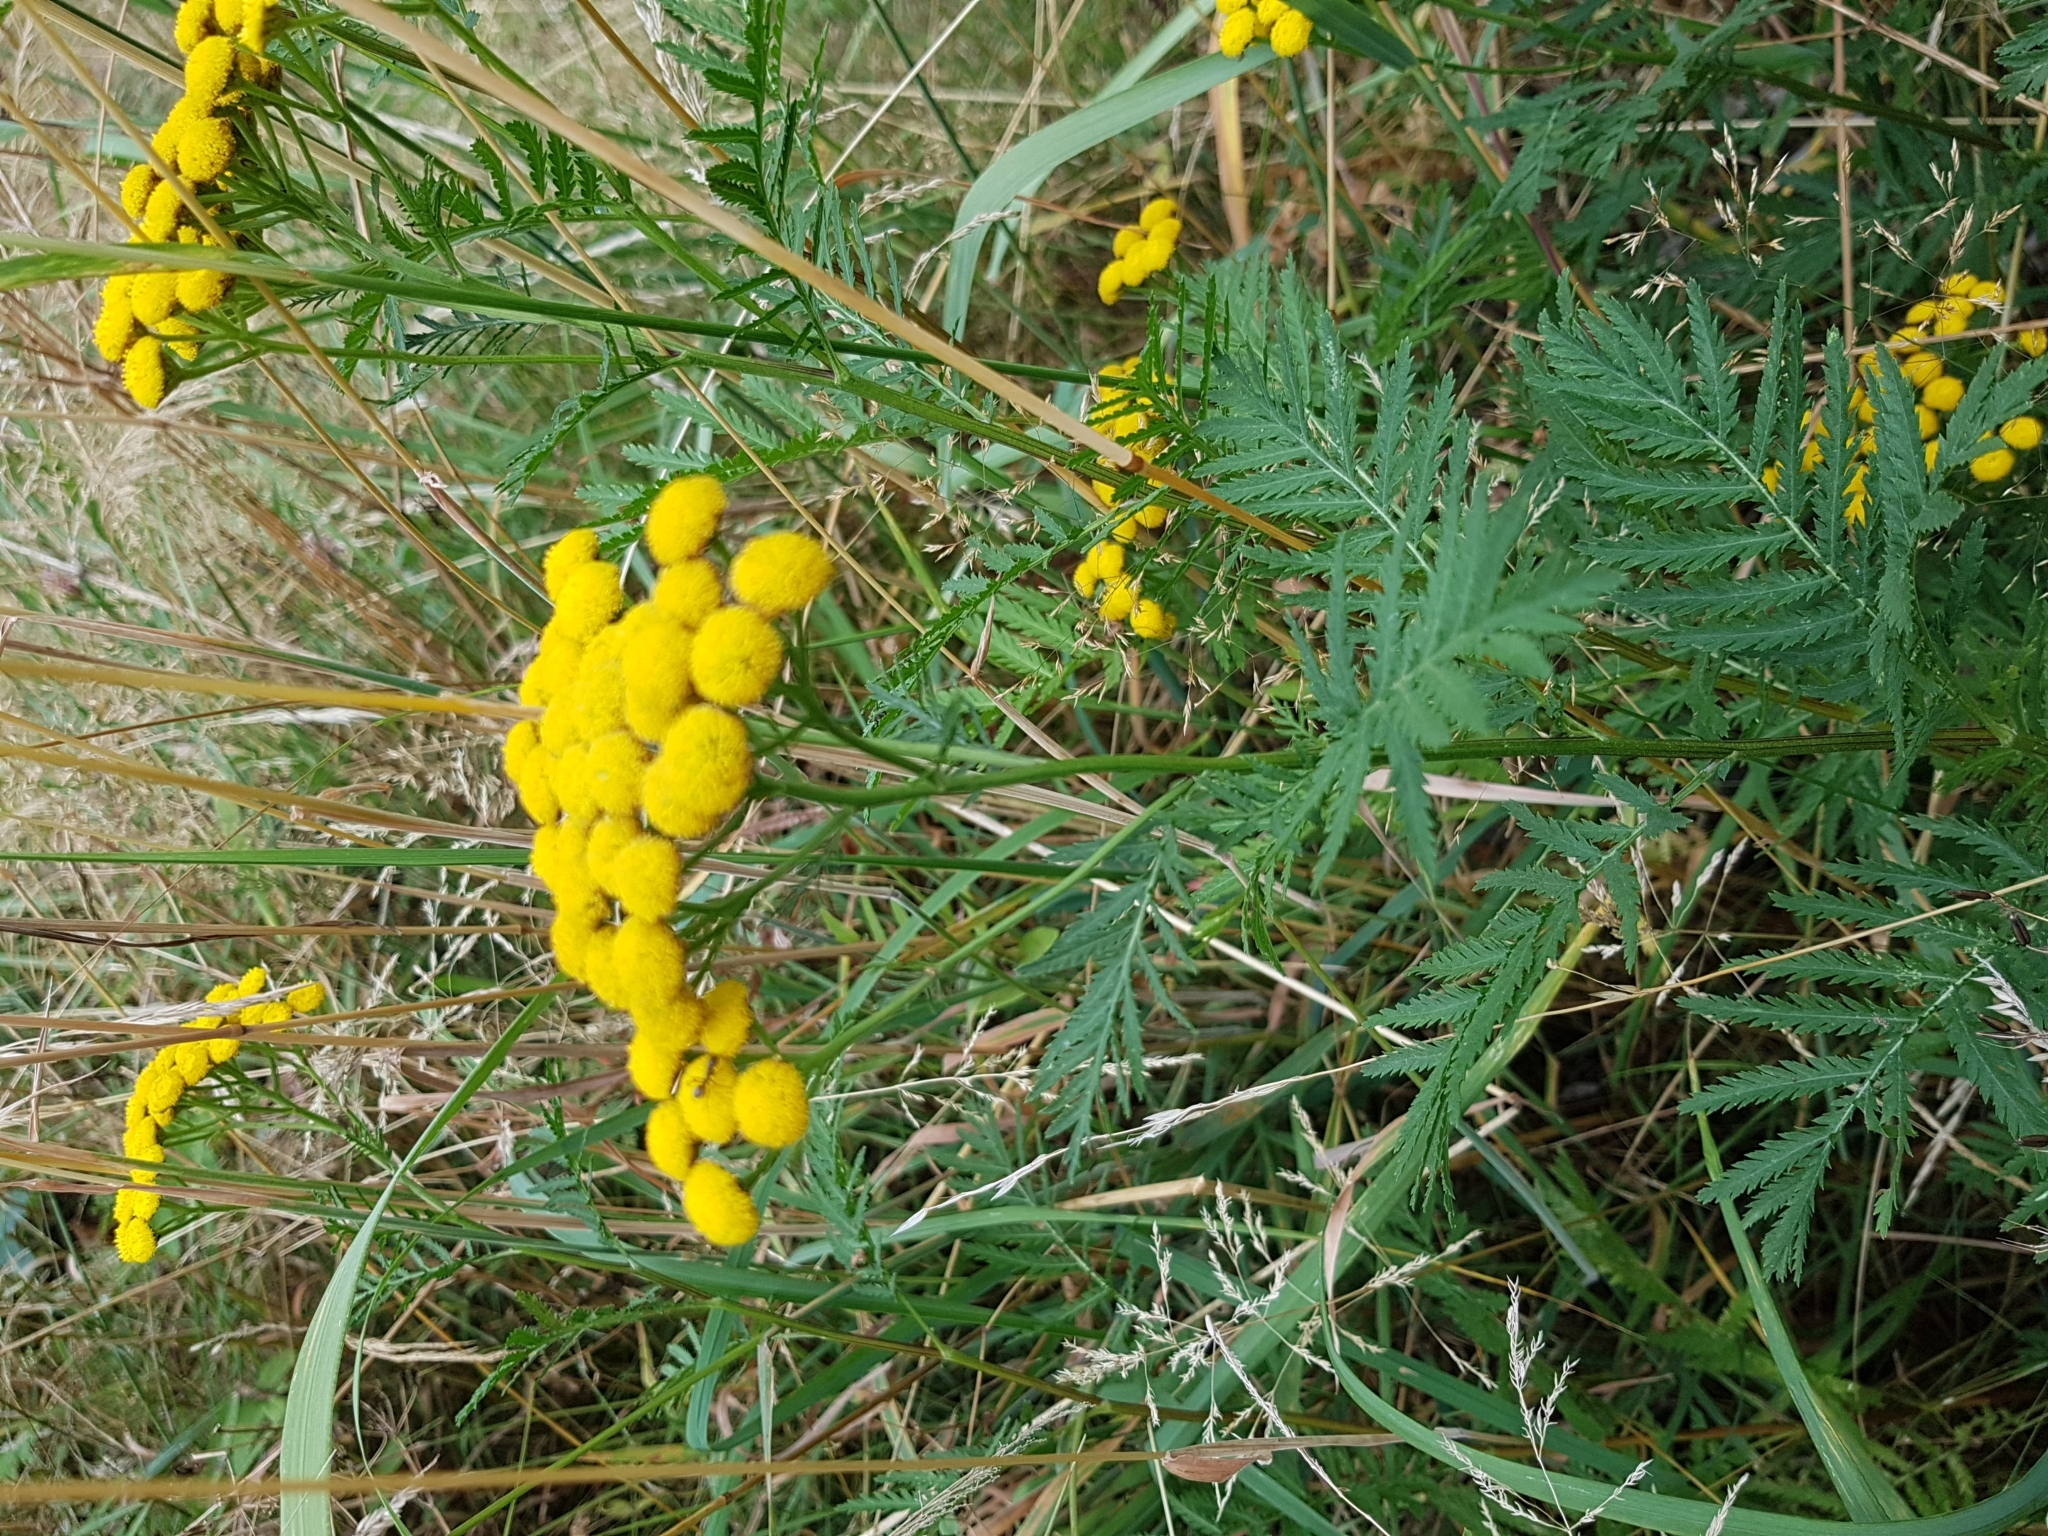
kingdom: Plantae
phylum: Tracheophyta
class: Magnoliopsida
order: Asterales
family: Asteraceae
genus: Tanacetum
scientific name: Tanacetum vulgare
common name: Common tansy
